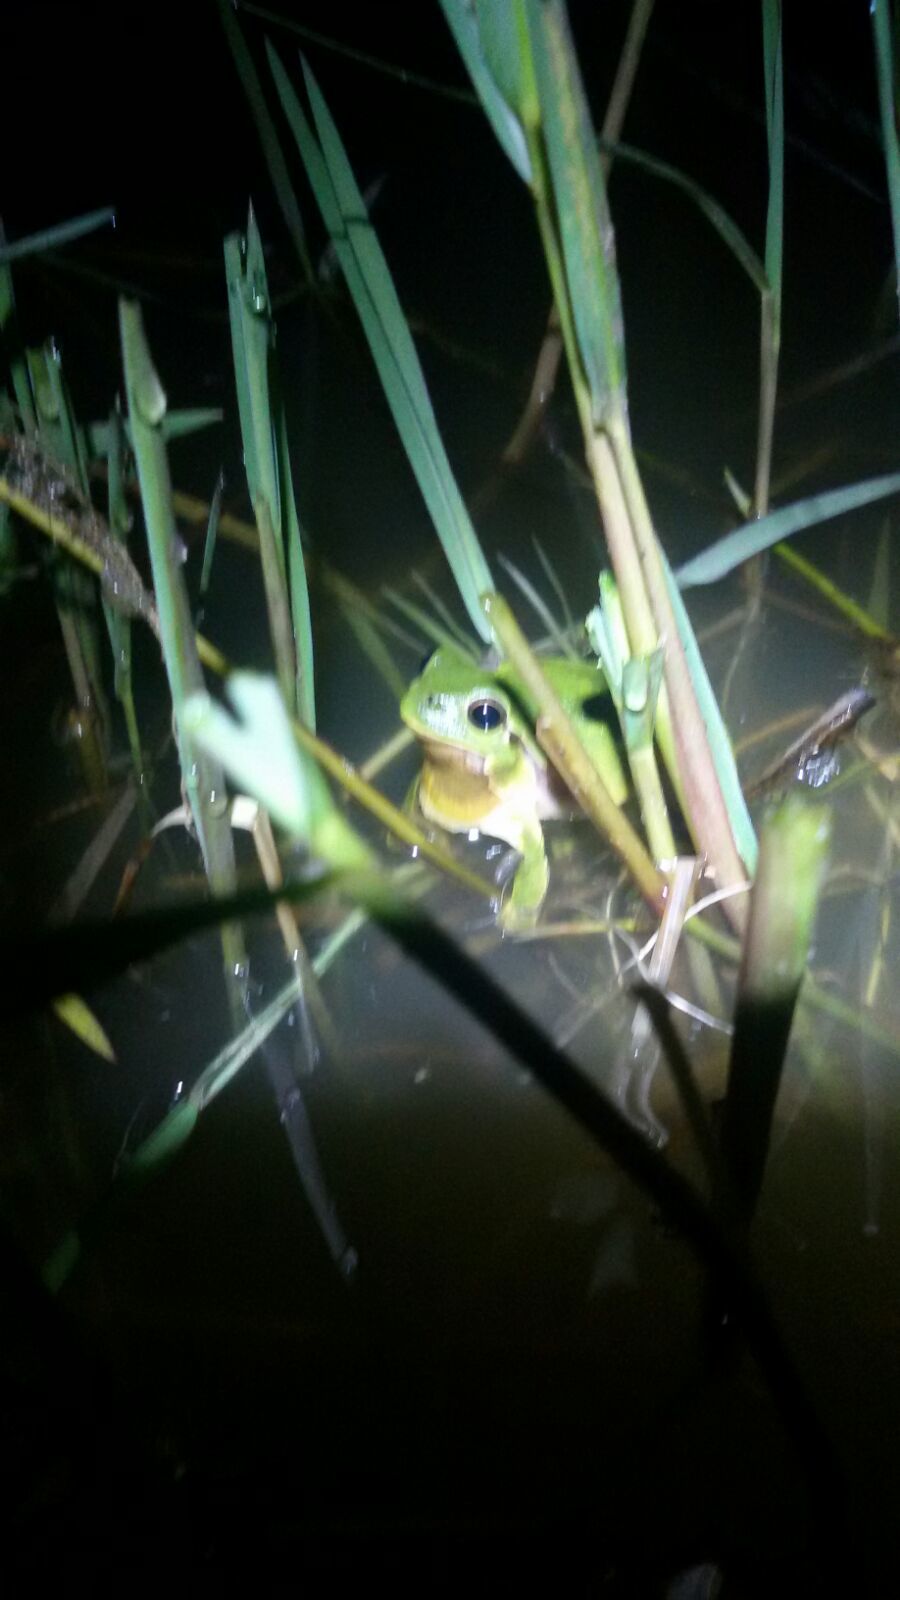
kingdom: Animalia
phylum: Chordata
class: Amphibia
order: Anura
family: Hylidae
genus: Hyla
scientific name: Hyla intermedia
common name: Italian tree frog
